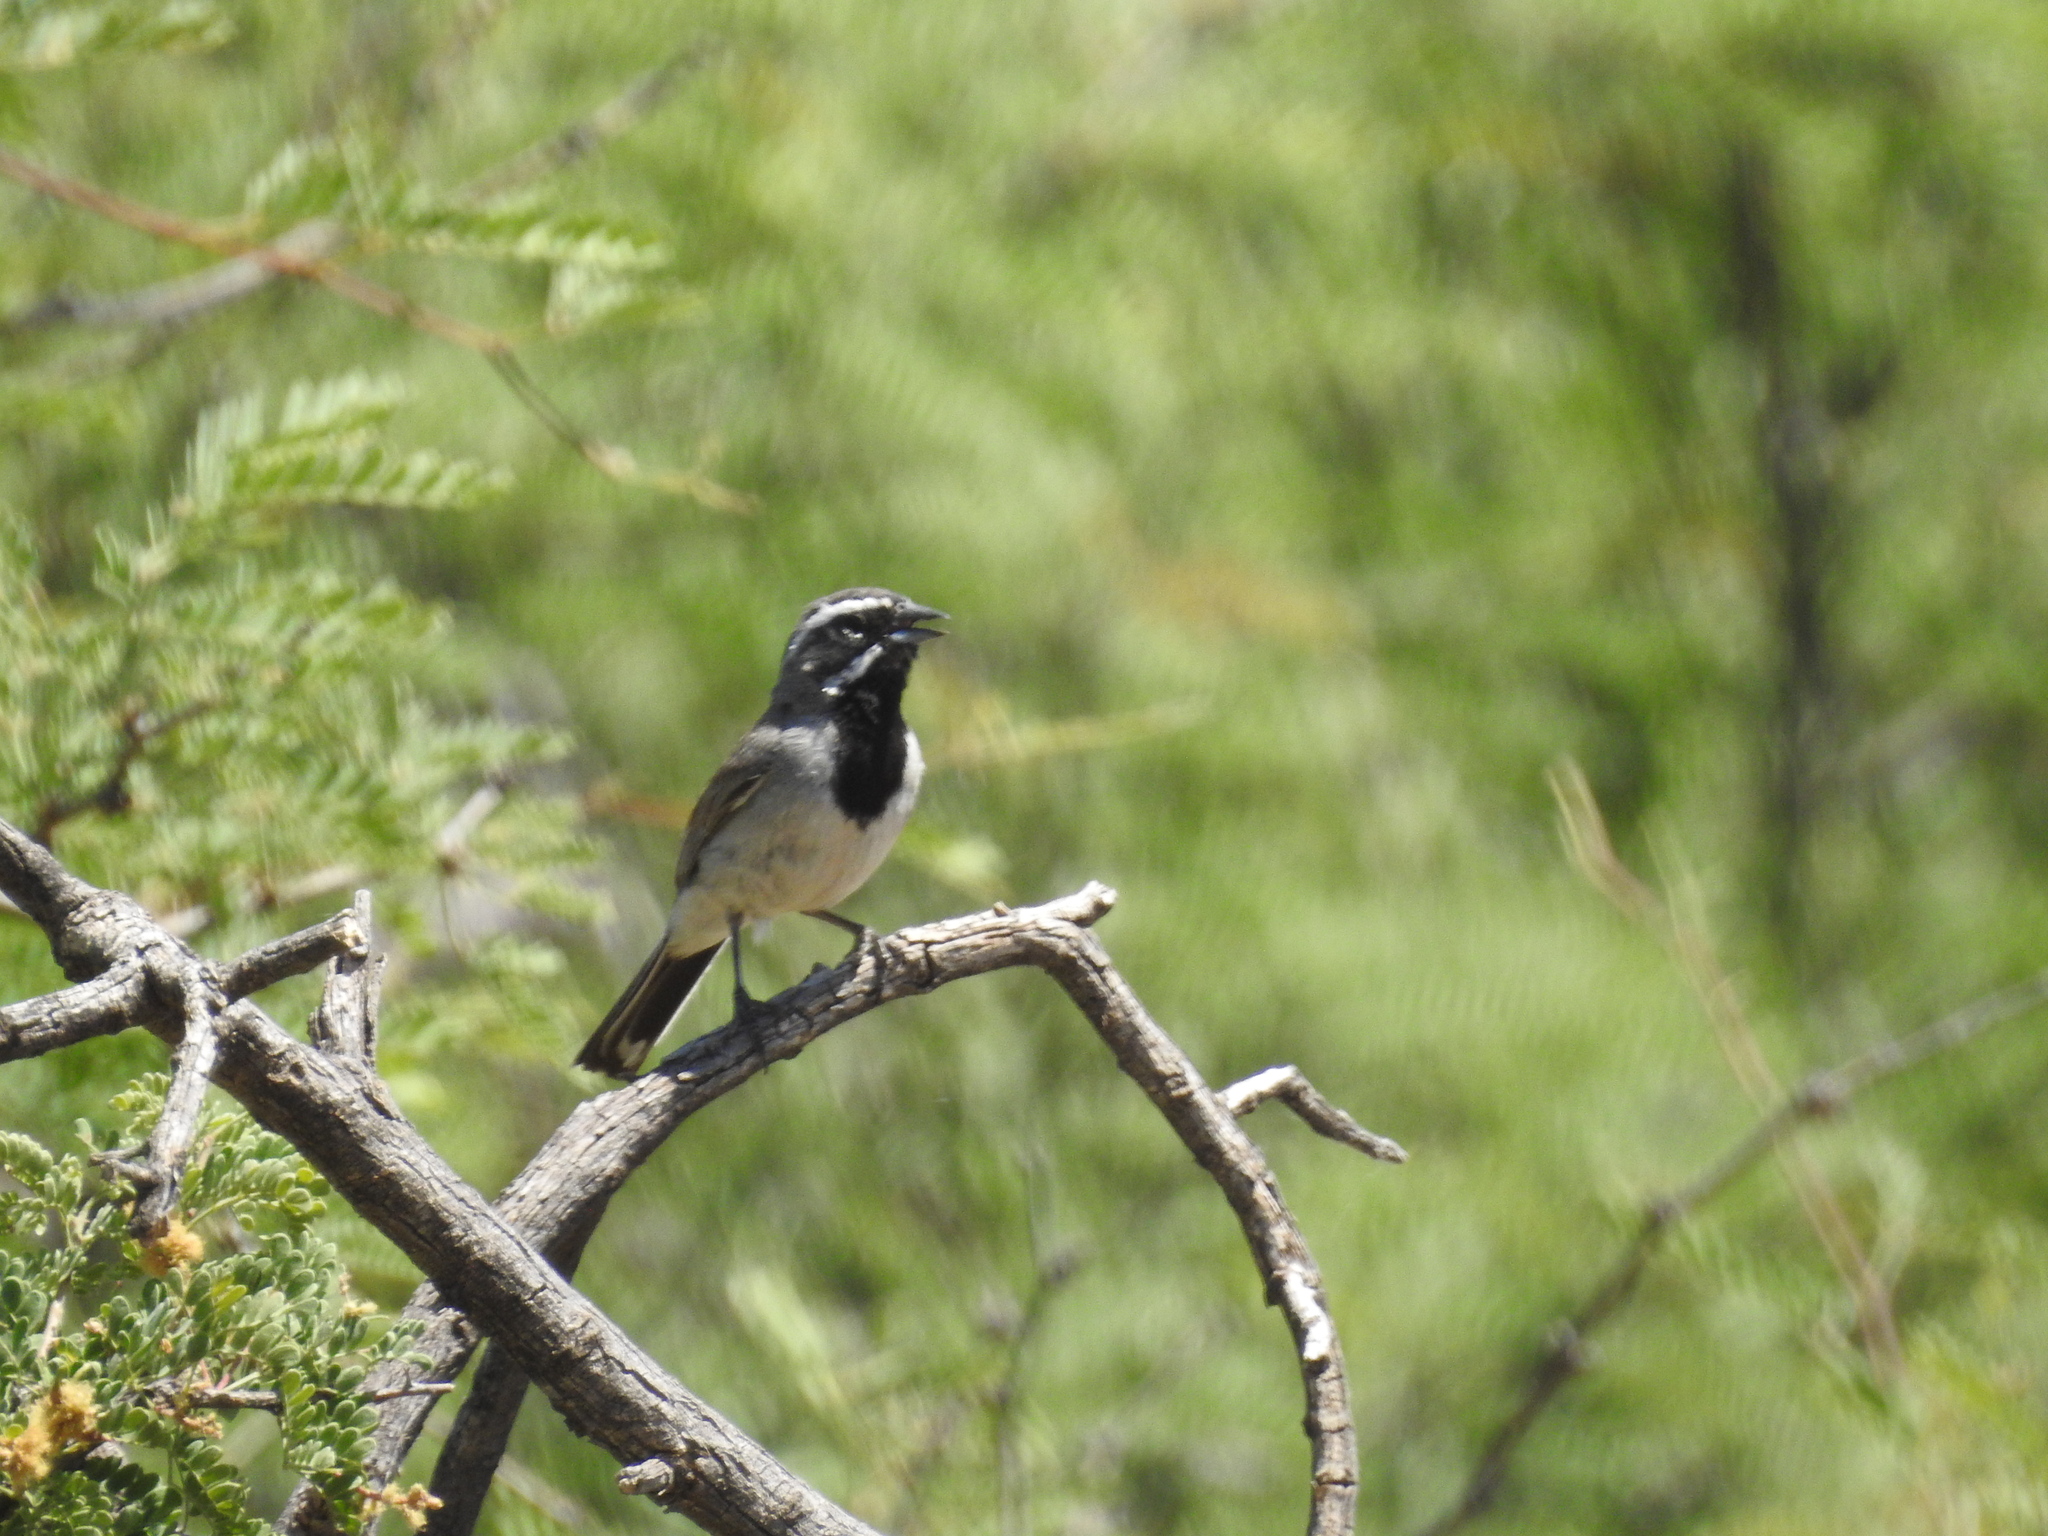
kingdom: Animalia
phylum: Chordata
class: Aves
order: Passeriformes
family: Passerellidae
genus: Amphispiza
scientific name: Amphispiza bilineata
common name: Black-throated sparrow
